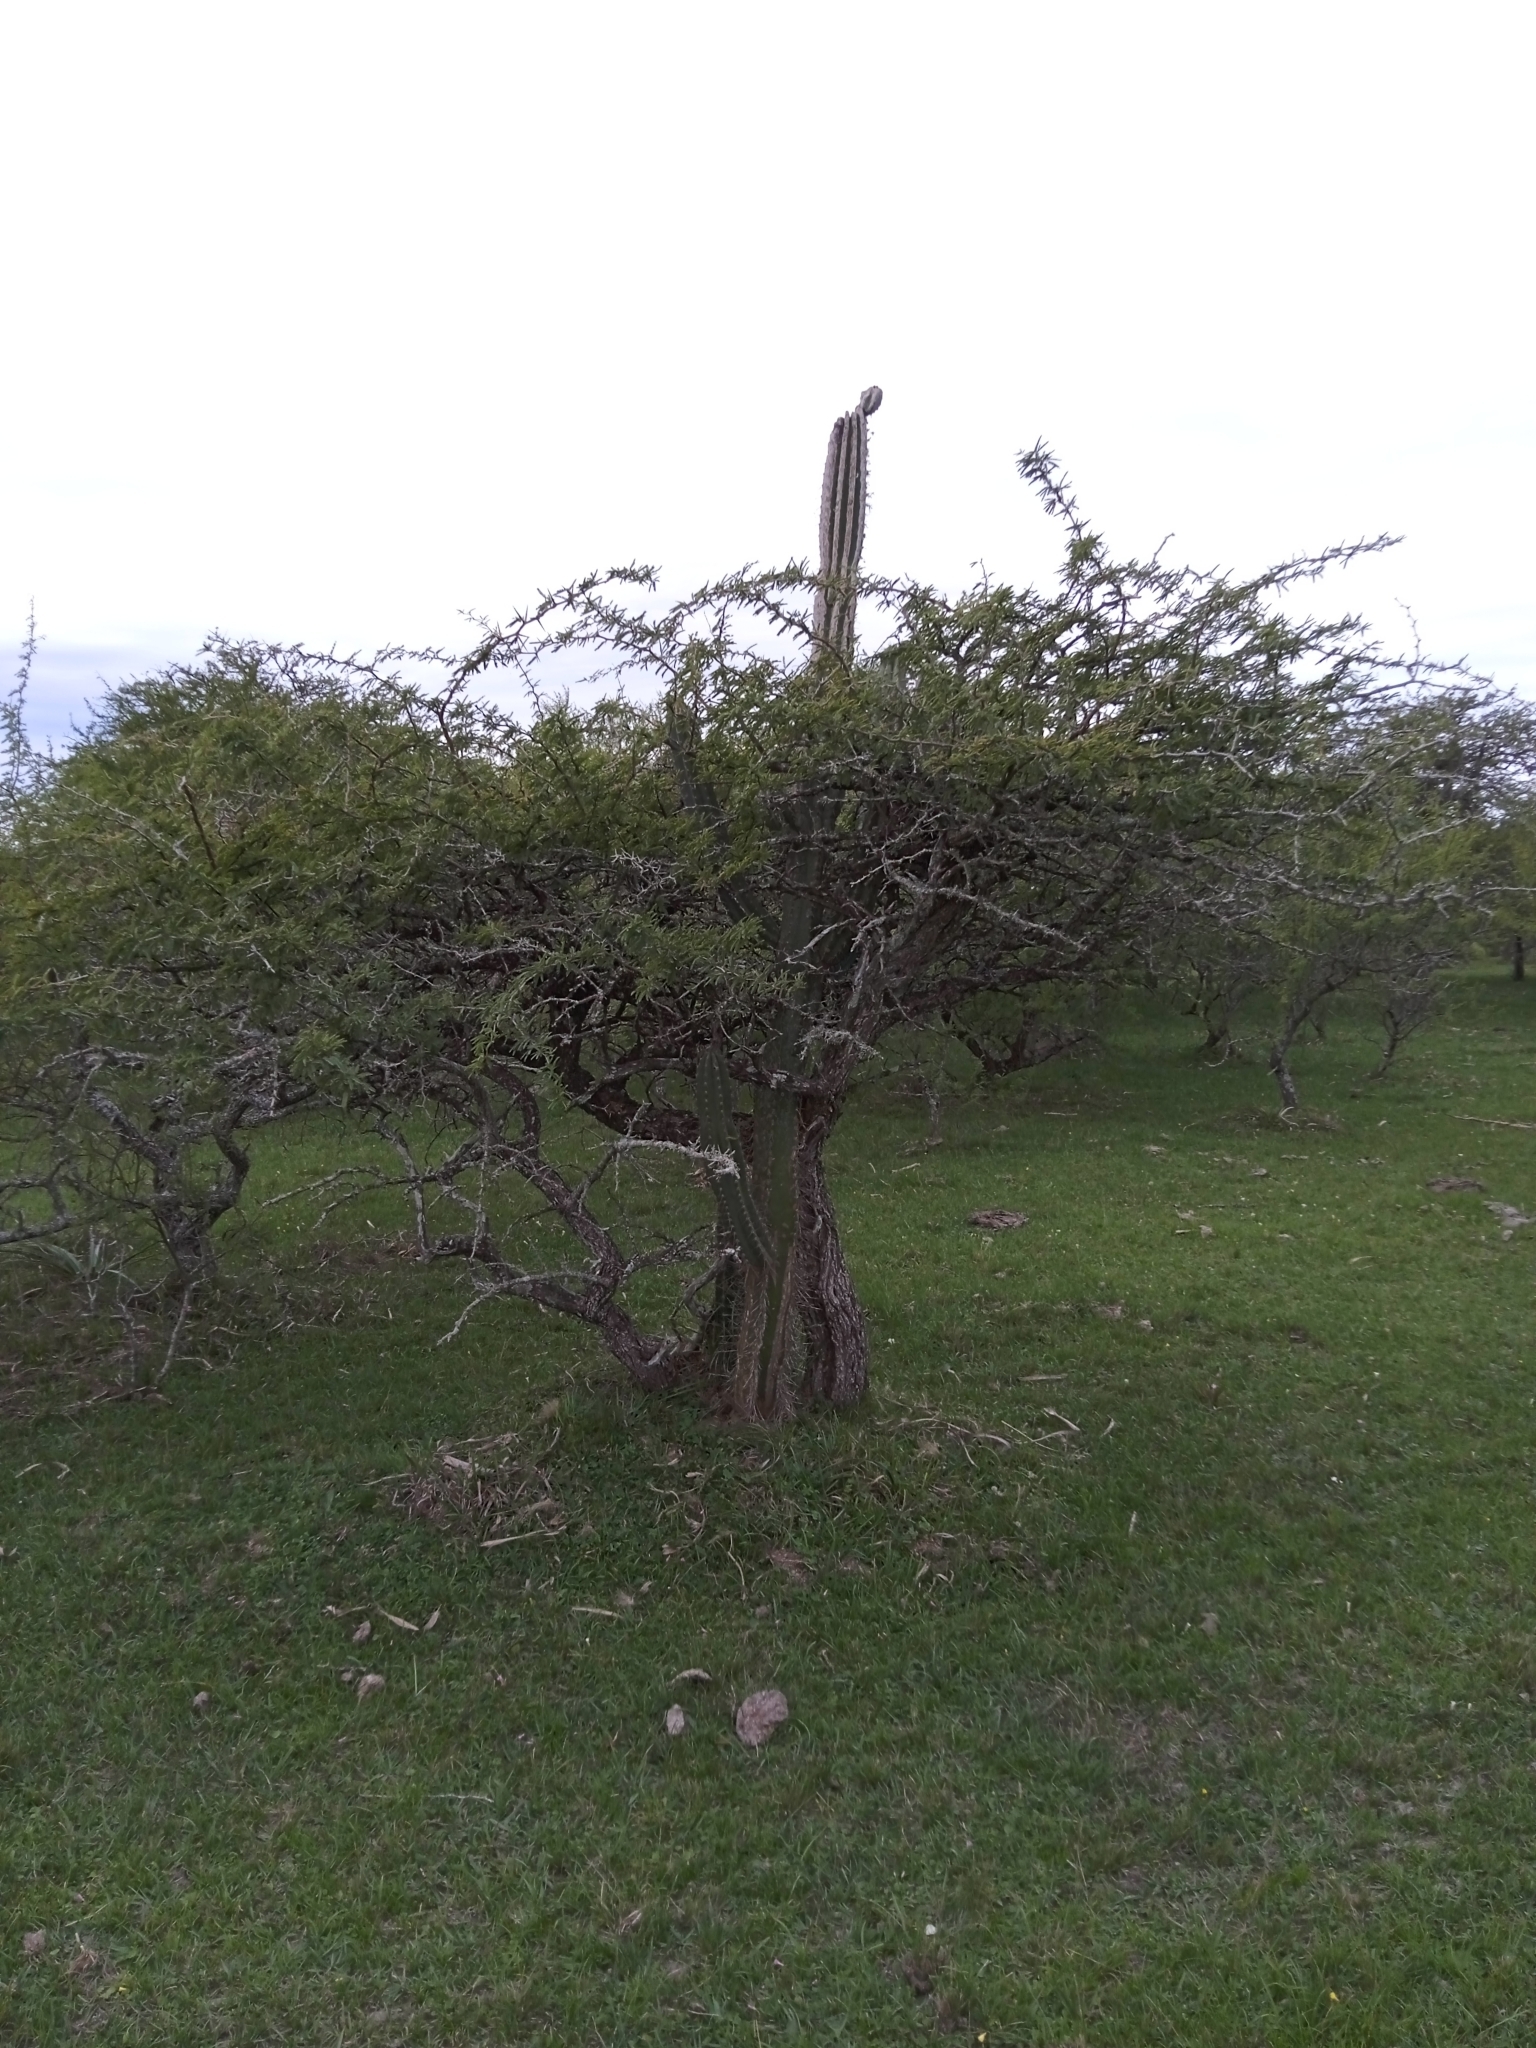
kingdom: Plantae
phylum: Tracheophyta
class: Magnoliopsida
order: Caryophyllales
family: Cactaceae
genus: Cereus
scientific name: Cereus hildmannianus
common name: Hedge cactus
